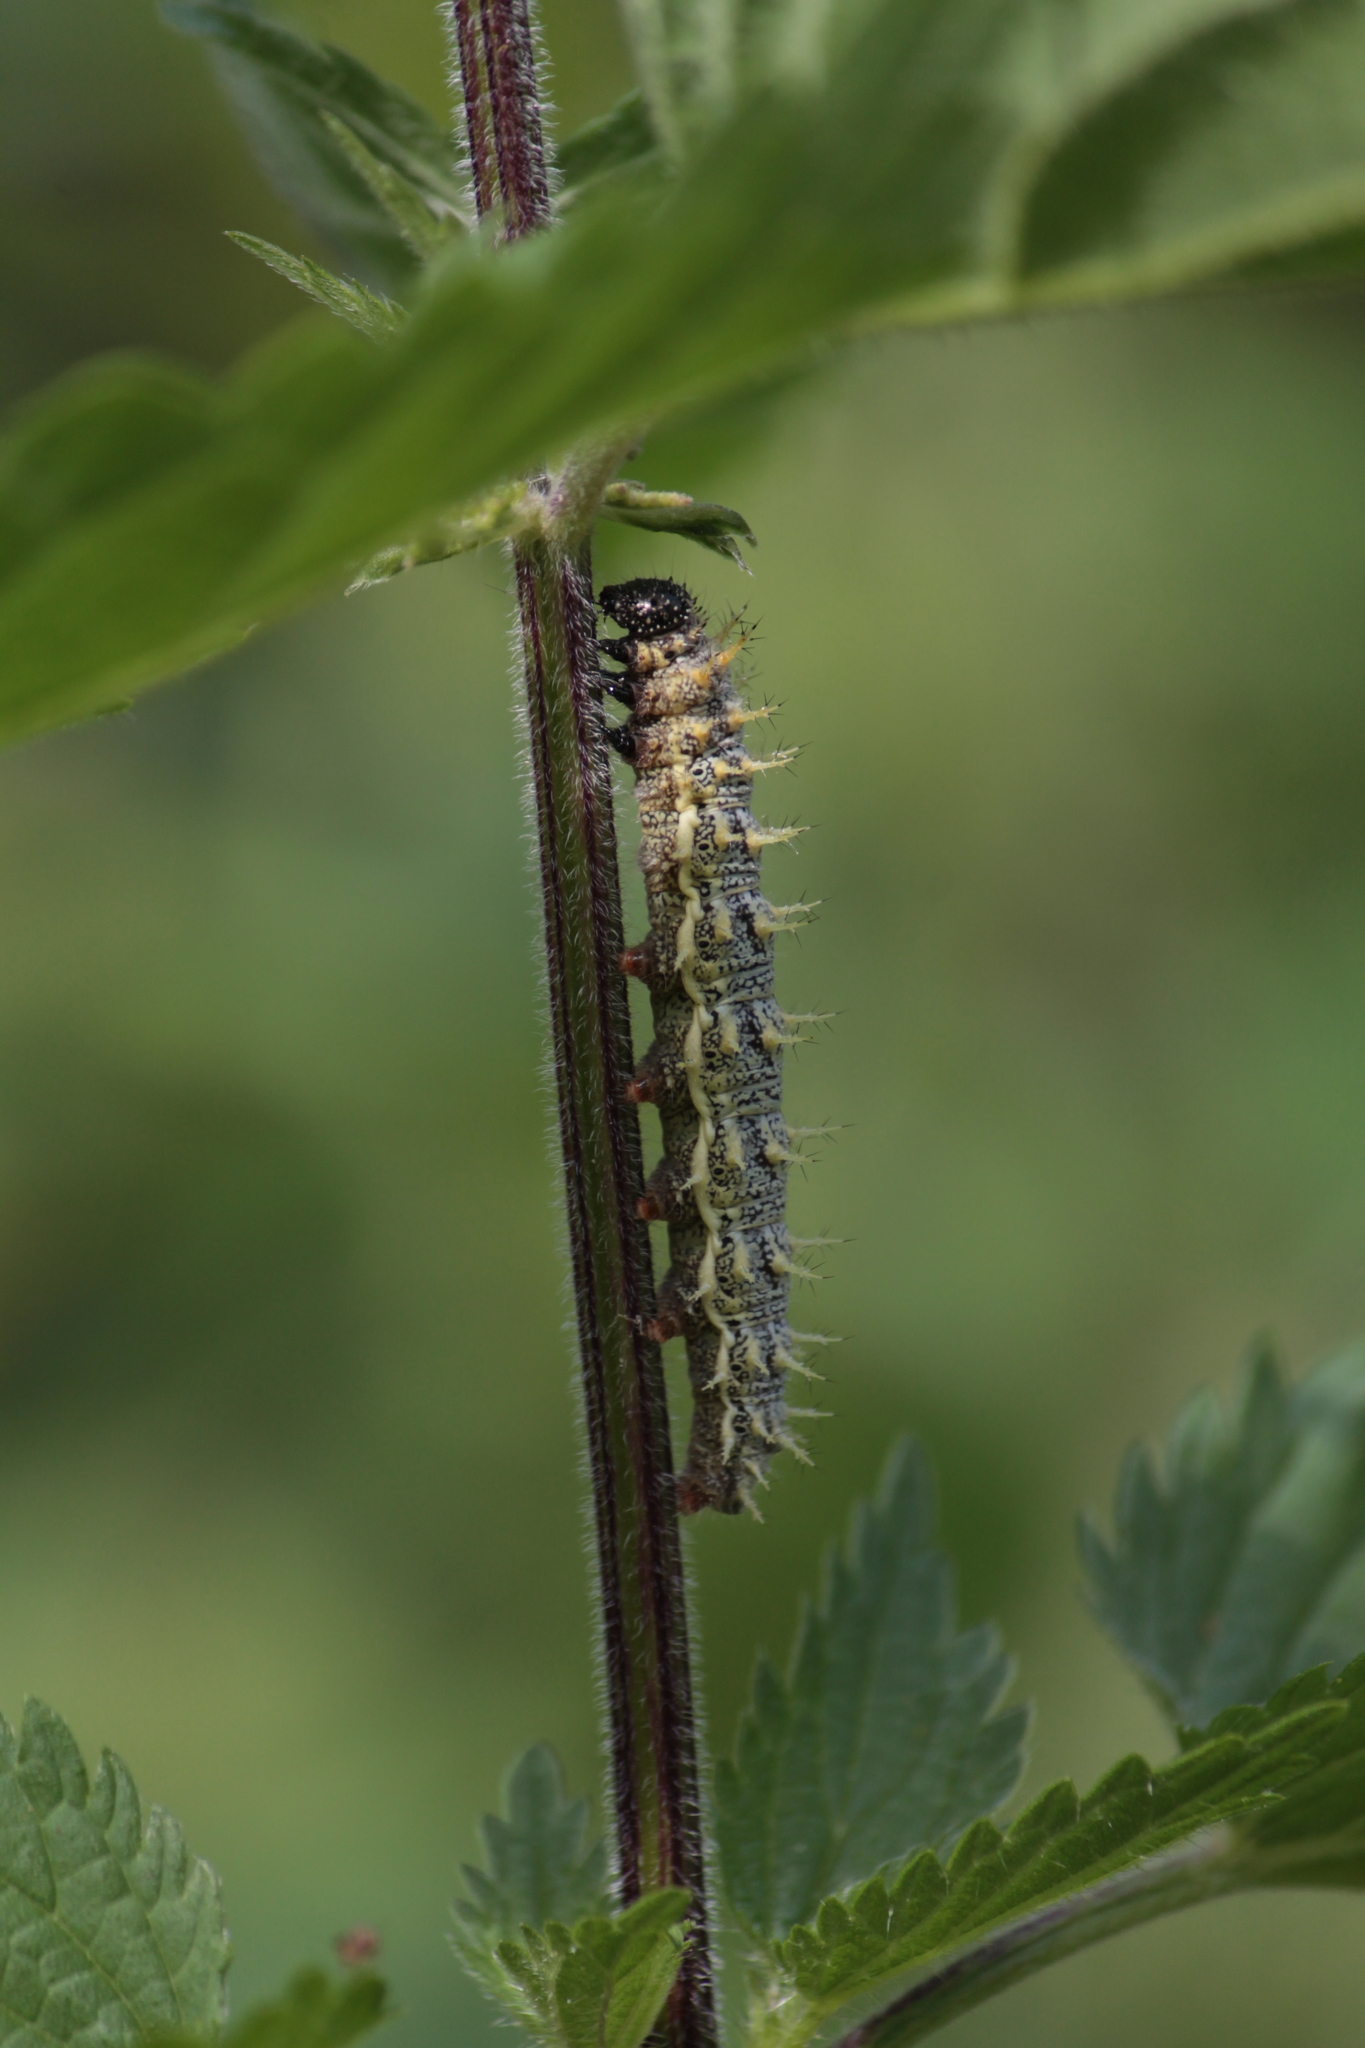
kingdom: Animalia
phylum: Arthropoda
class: Insecta
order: Lepidoptera
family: Nymphalidae
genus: Vanessa
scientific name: Vanessa atalanta
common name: Red admiral
